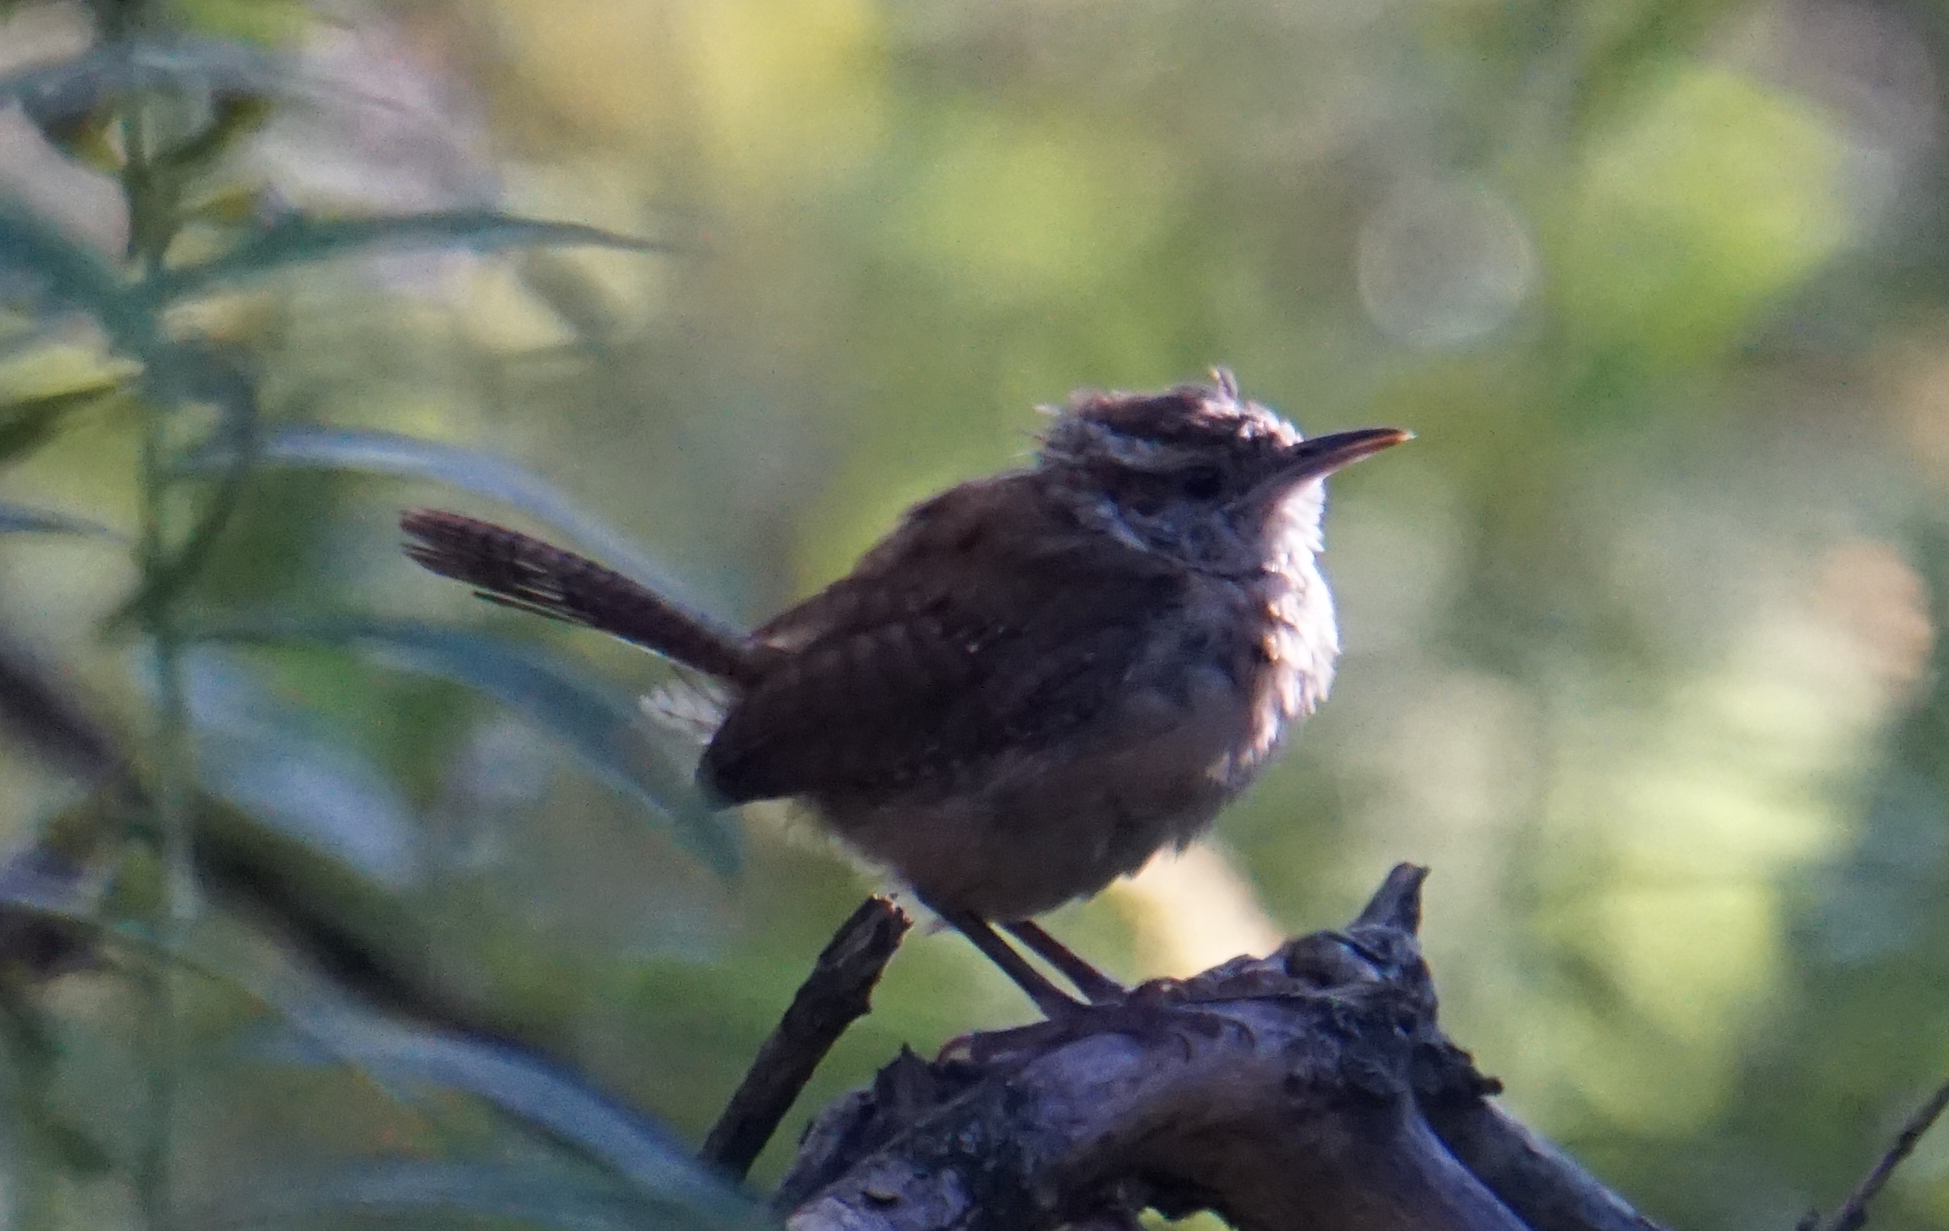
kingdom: Animalia
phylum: Chordata
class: Aves
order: Passeriformes
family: Troglodytidae
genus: Thryothorus
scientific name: Thryothorus ludovicianus
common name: Carolina wren
